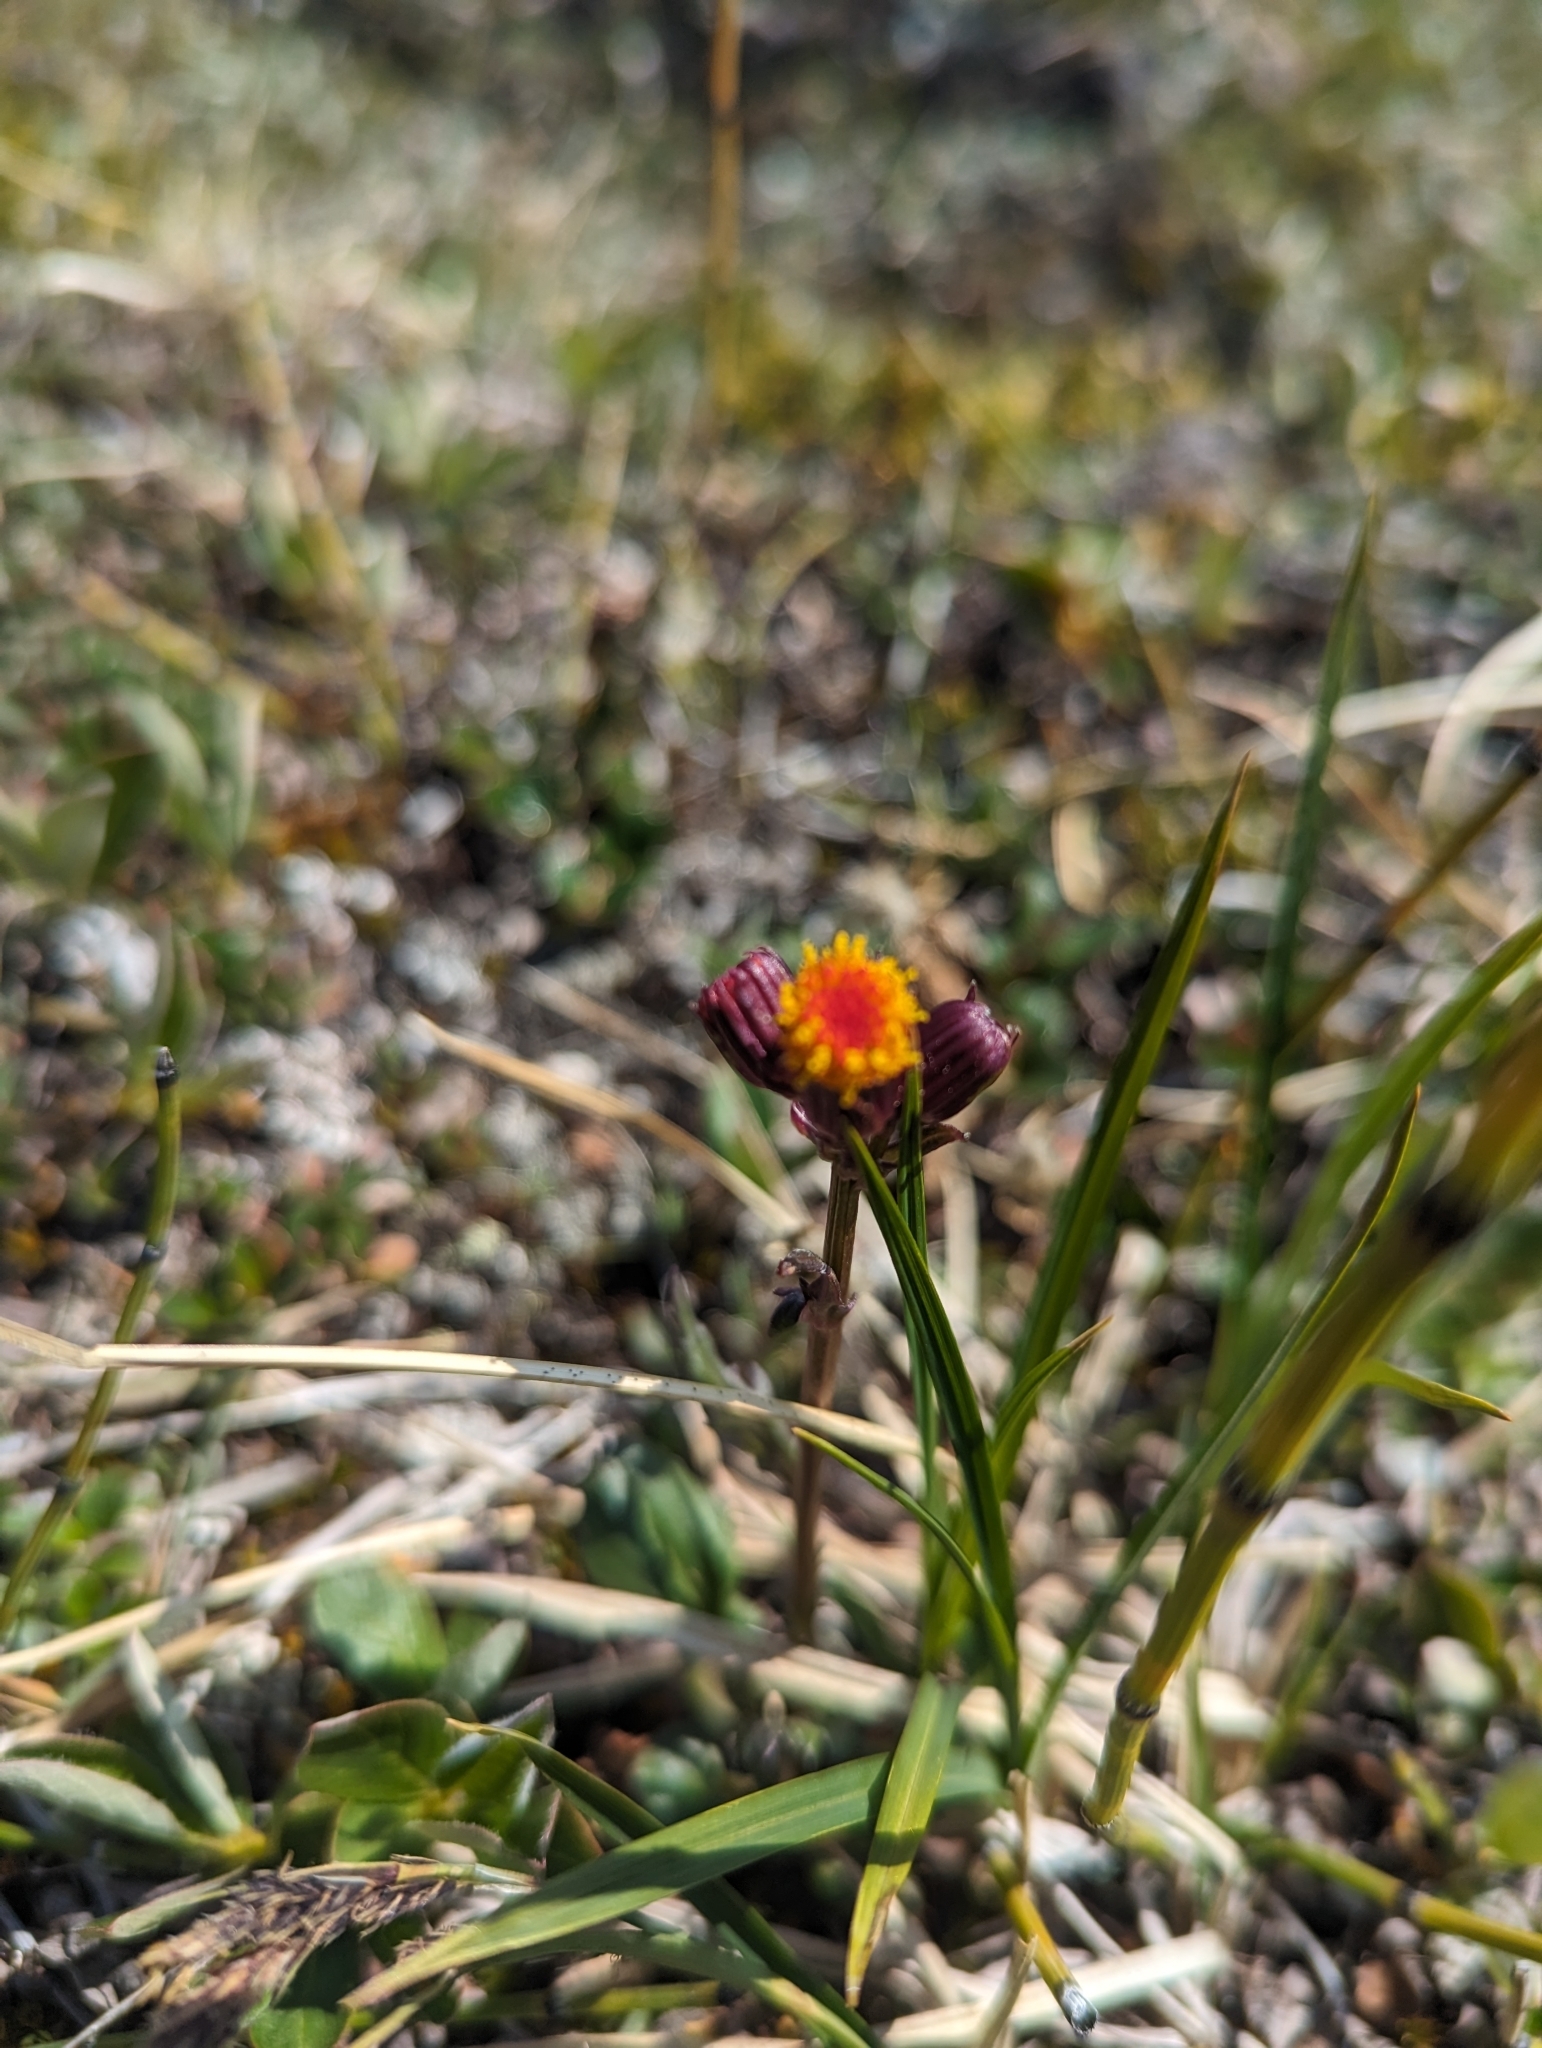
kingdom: Plantae
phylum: Tracheophyta
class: Magnoliopsida
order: Asterales
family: Asteraceae
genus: Packera
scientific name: Packera pauciflora
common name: Alpine groundsel
